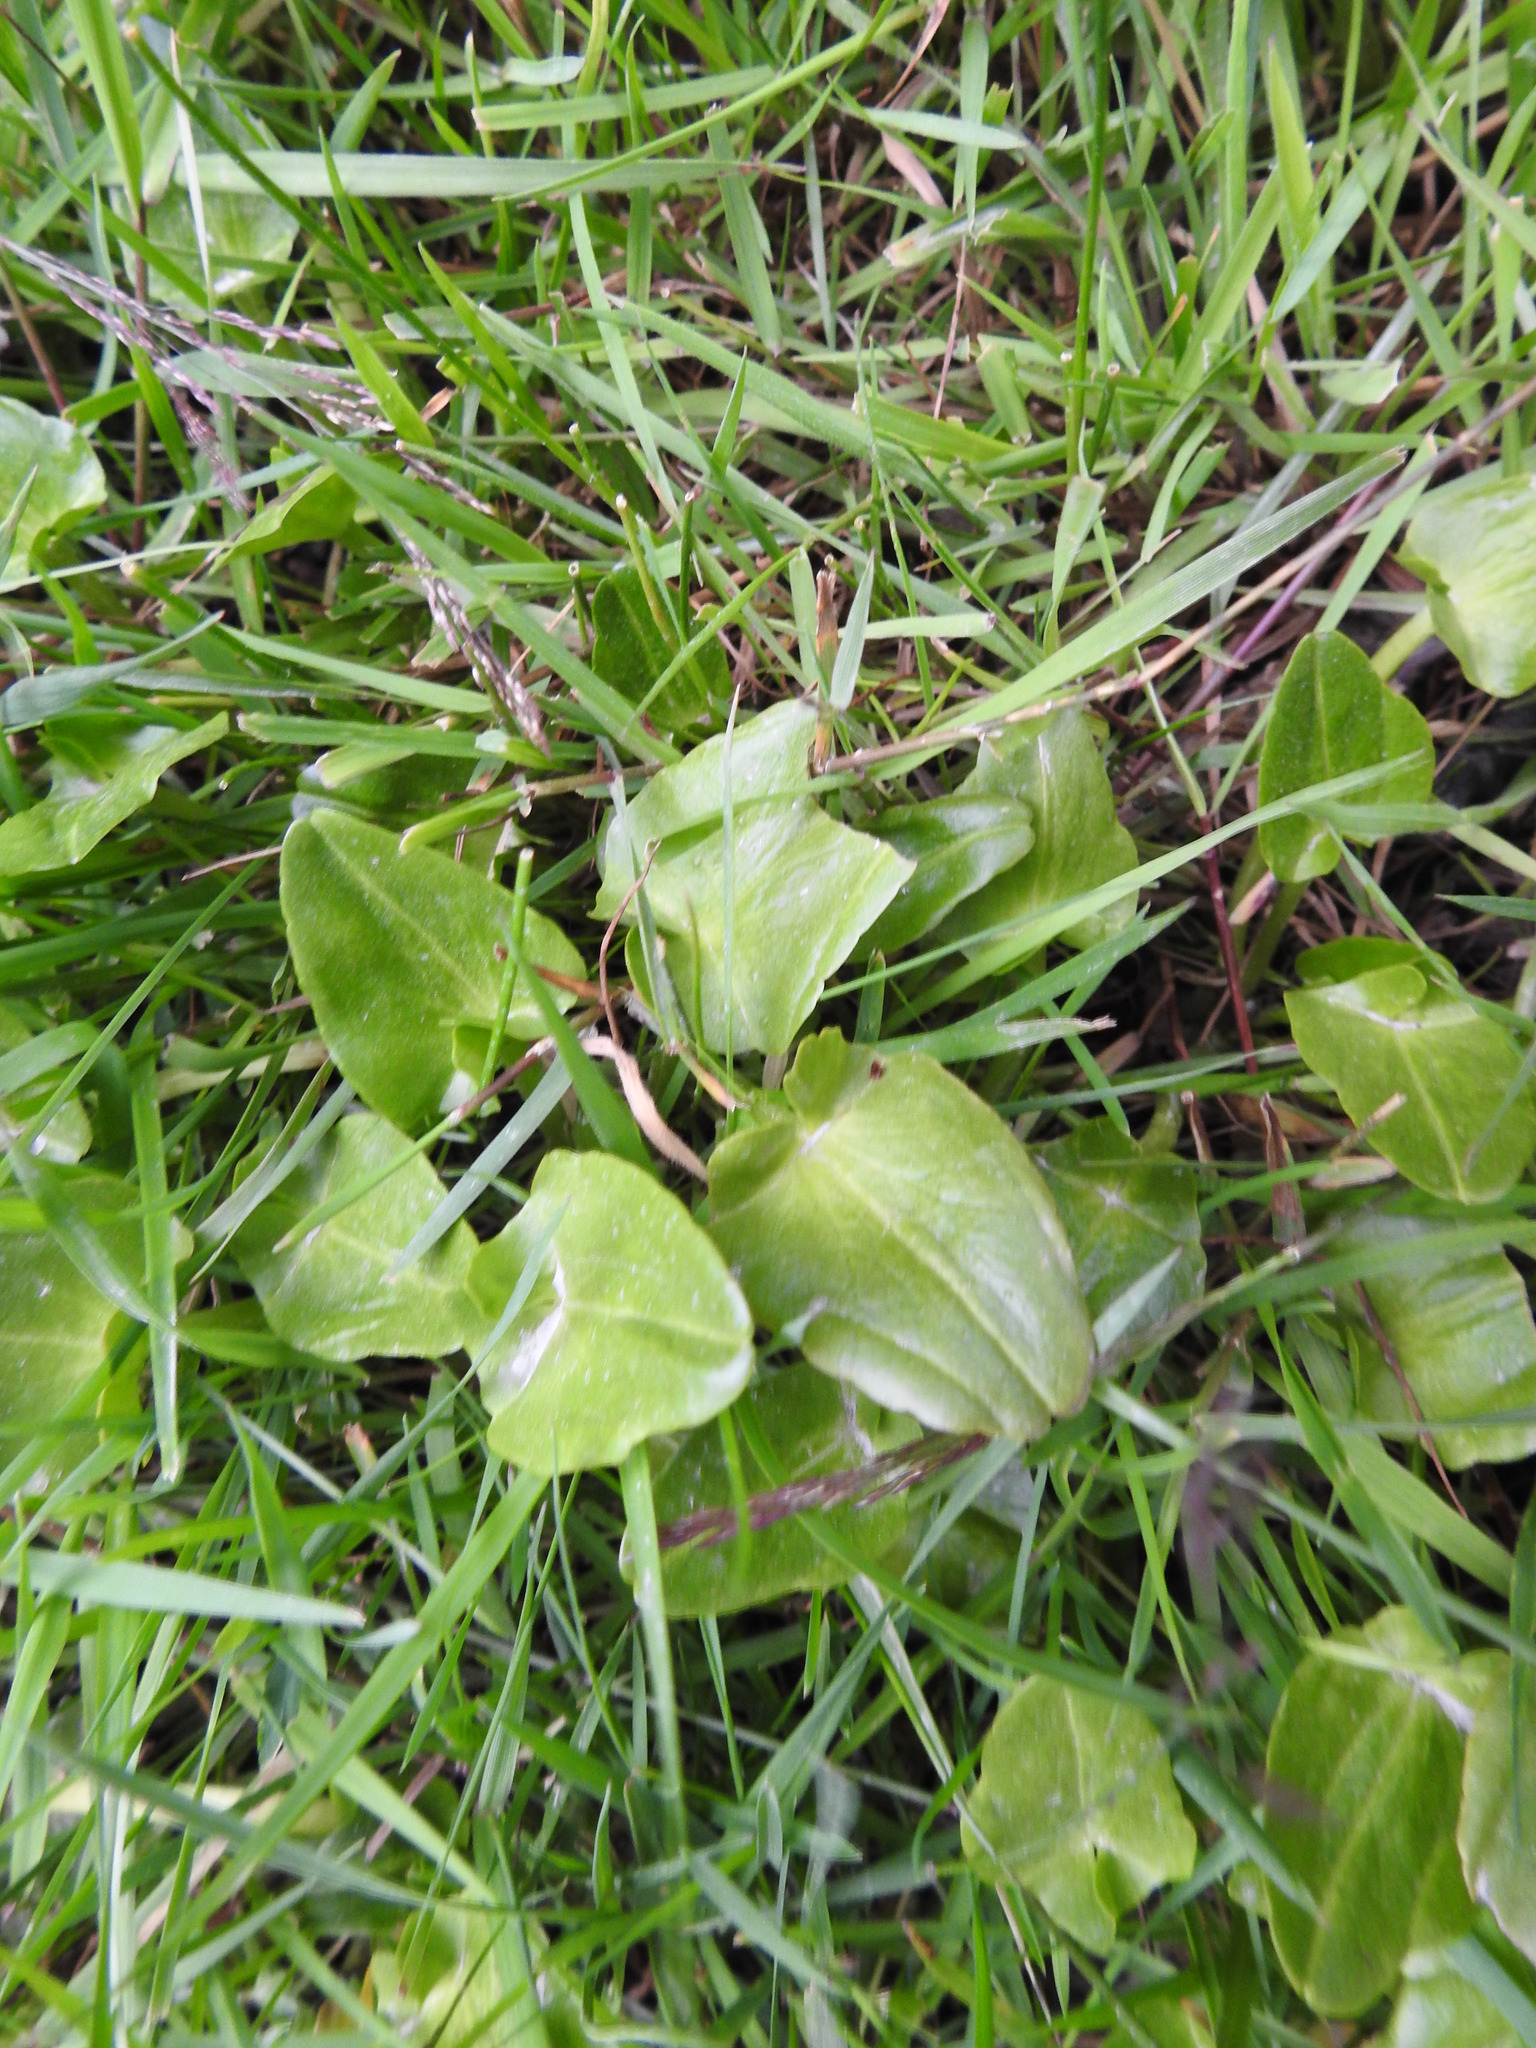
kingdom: Plantae
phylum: Tracheophyta
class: Magnoliopsida
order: Ranunculales
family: Ranunculaceae
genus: Caltha
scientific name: Caltha sagittata
